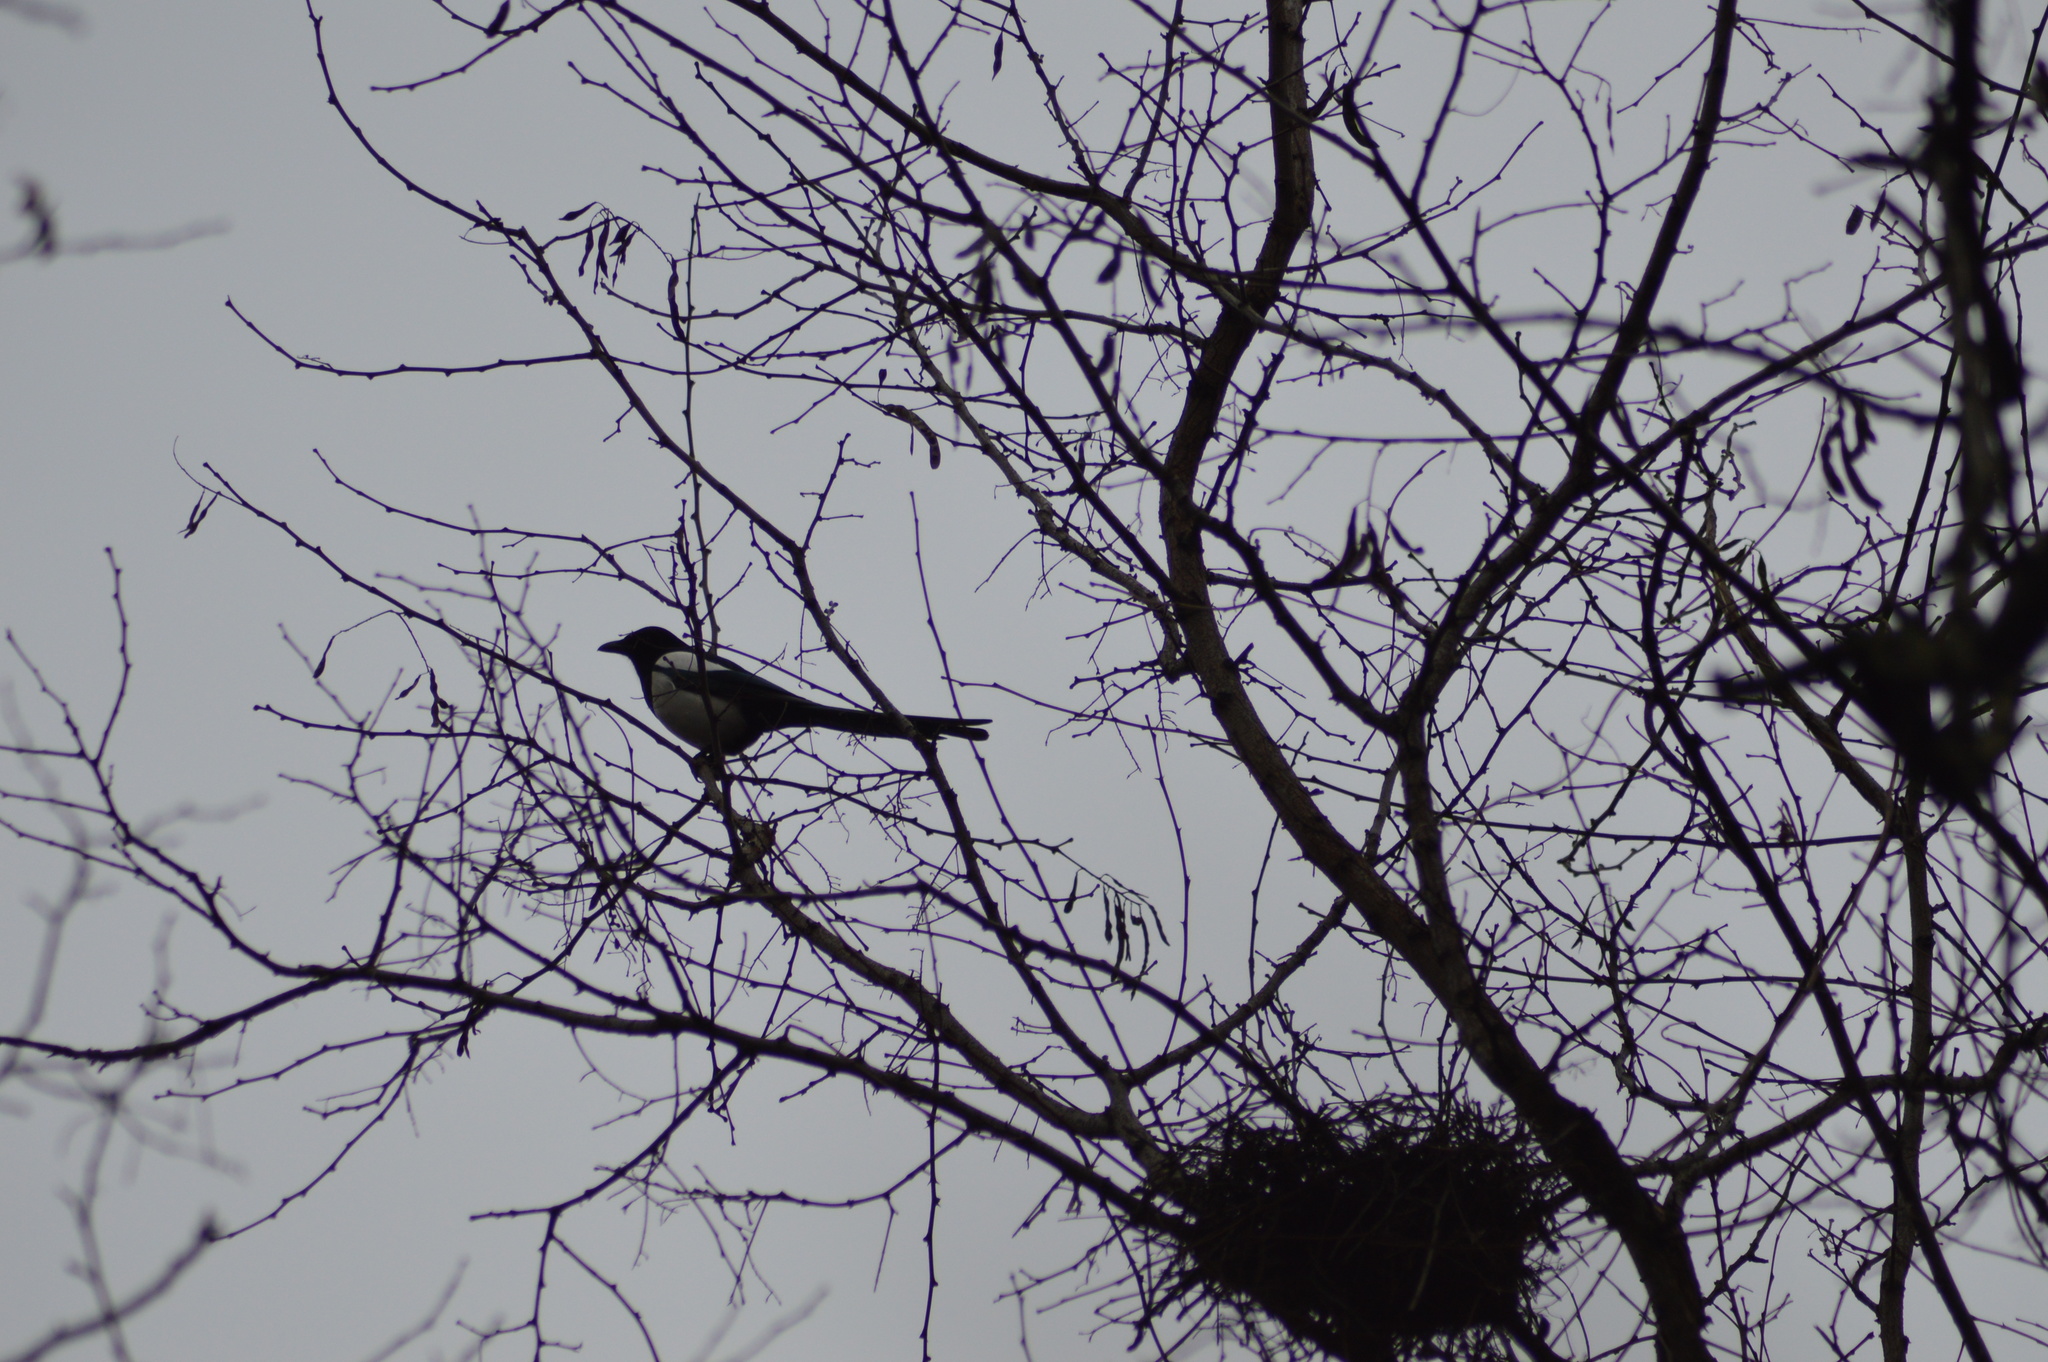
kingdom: Animalia
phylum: Chordata
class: Aves
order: Passeriformes
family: Corvidae
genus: Pica
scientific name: Pica pica
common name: Eurasian magpie
